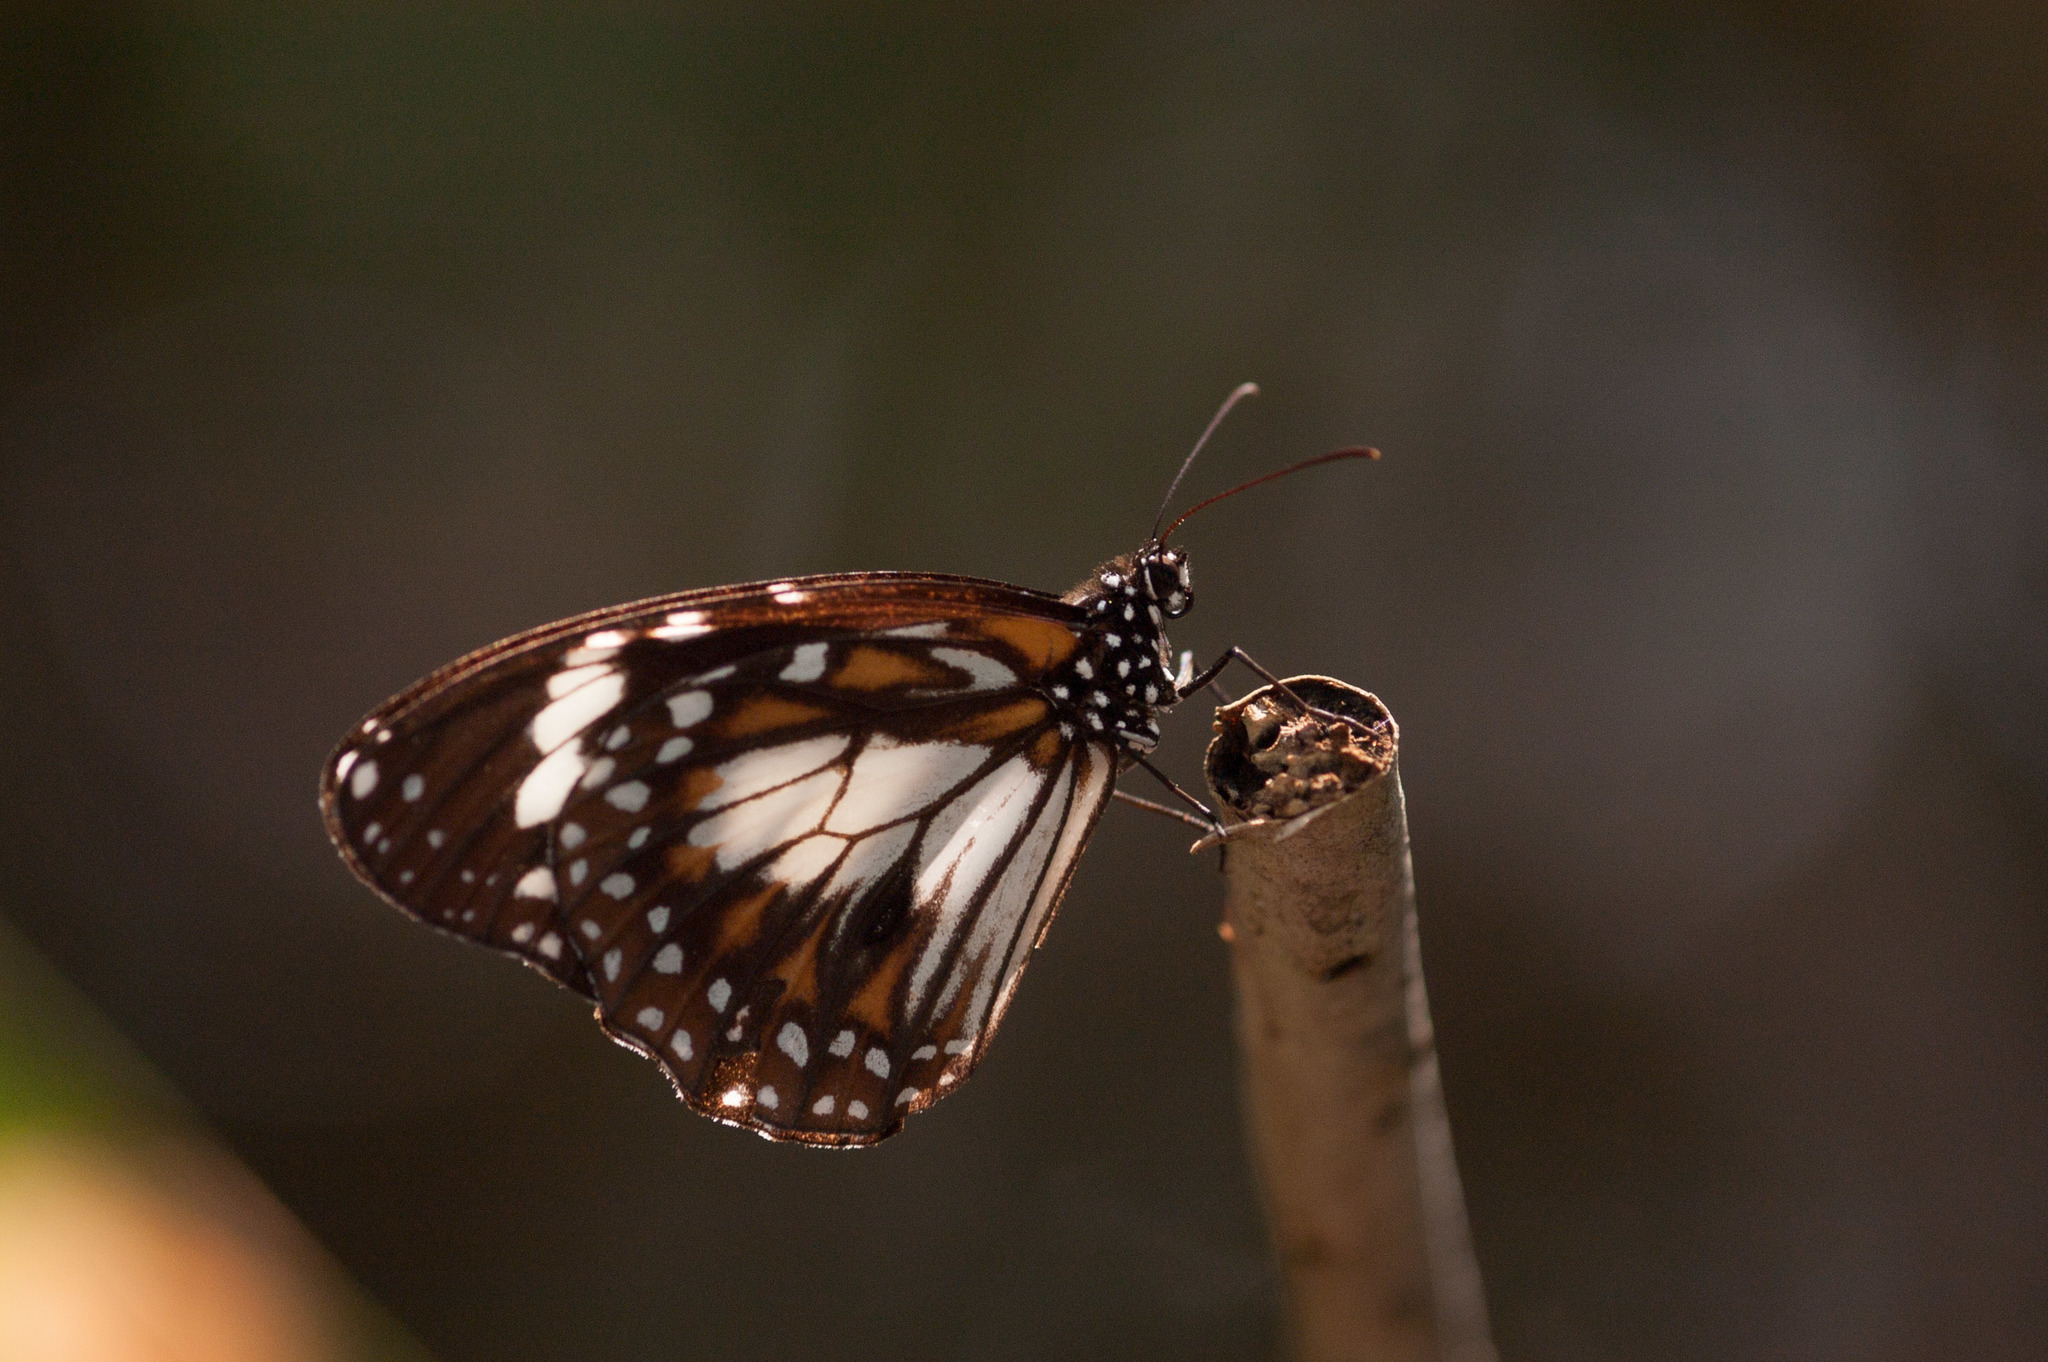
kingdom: Animalia
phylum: Arthropoda
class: Insecta
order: Lepidoptera
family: Nymphalidae
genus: Danaus
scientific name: Danaus affinis
